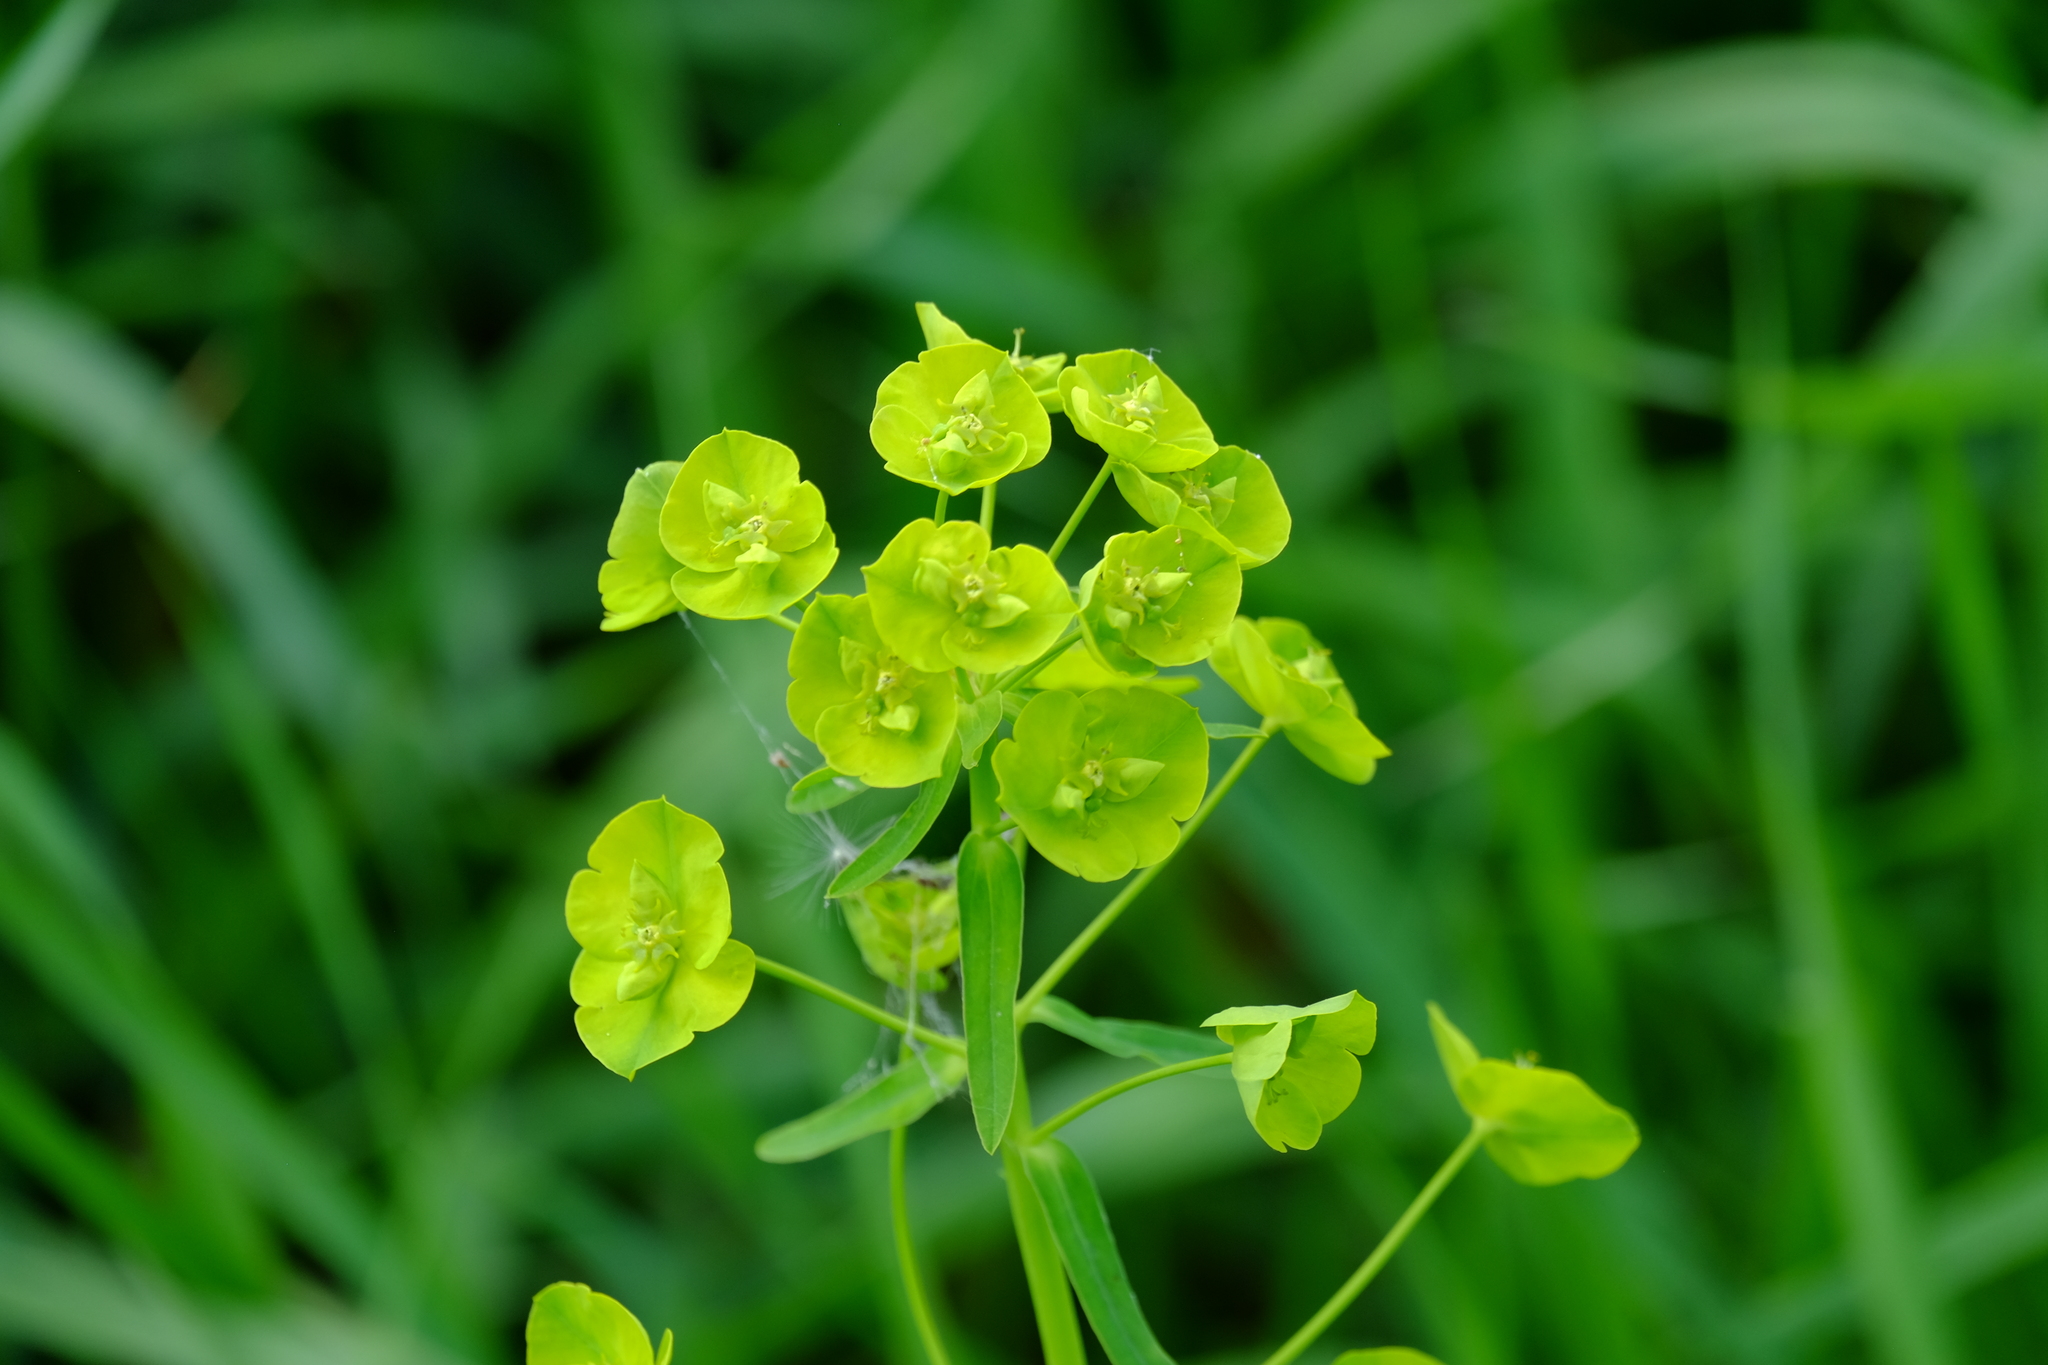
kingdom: Plantae
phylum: Tracheophyta
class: Magnoliopsida
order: Malpighiales
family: Euphorbiaceae
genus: Euphorbia
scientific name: Euphorbia virgata
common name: Leafy spurge
